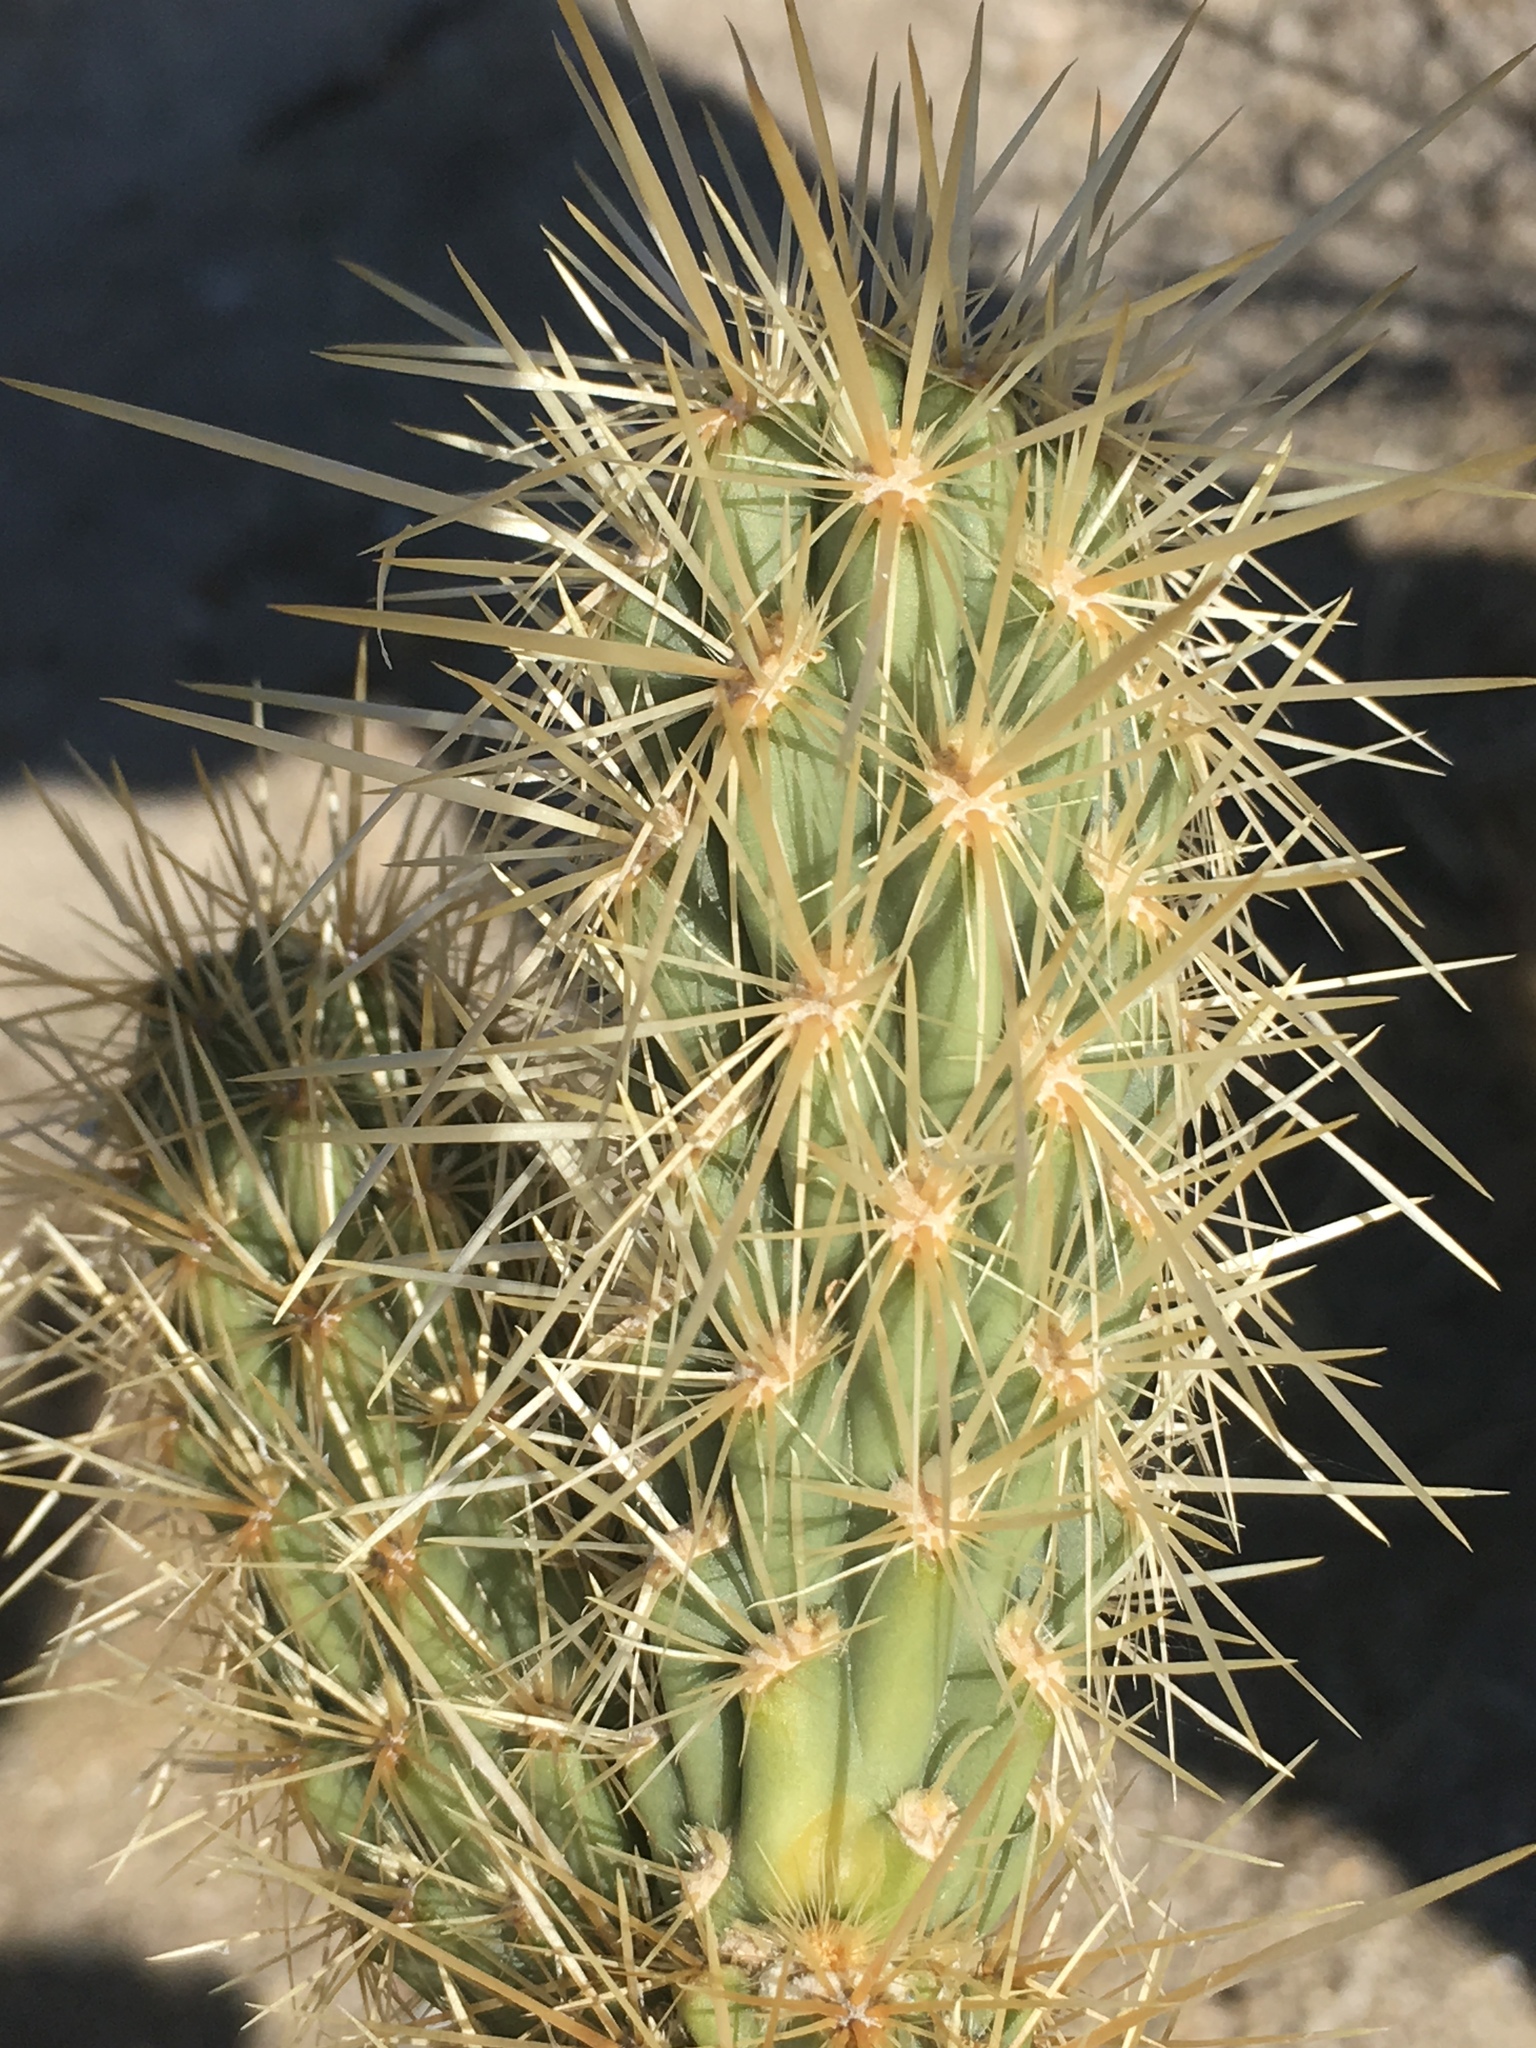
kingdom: Plantae
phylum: Tracheophyta
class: Magnoliopsida
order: Caryophyllales
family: Cactaceae
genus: Cylindropuntia
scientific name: Cylindropuntia ganderi
